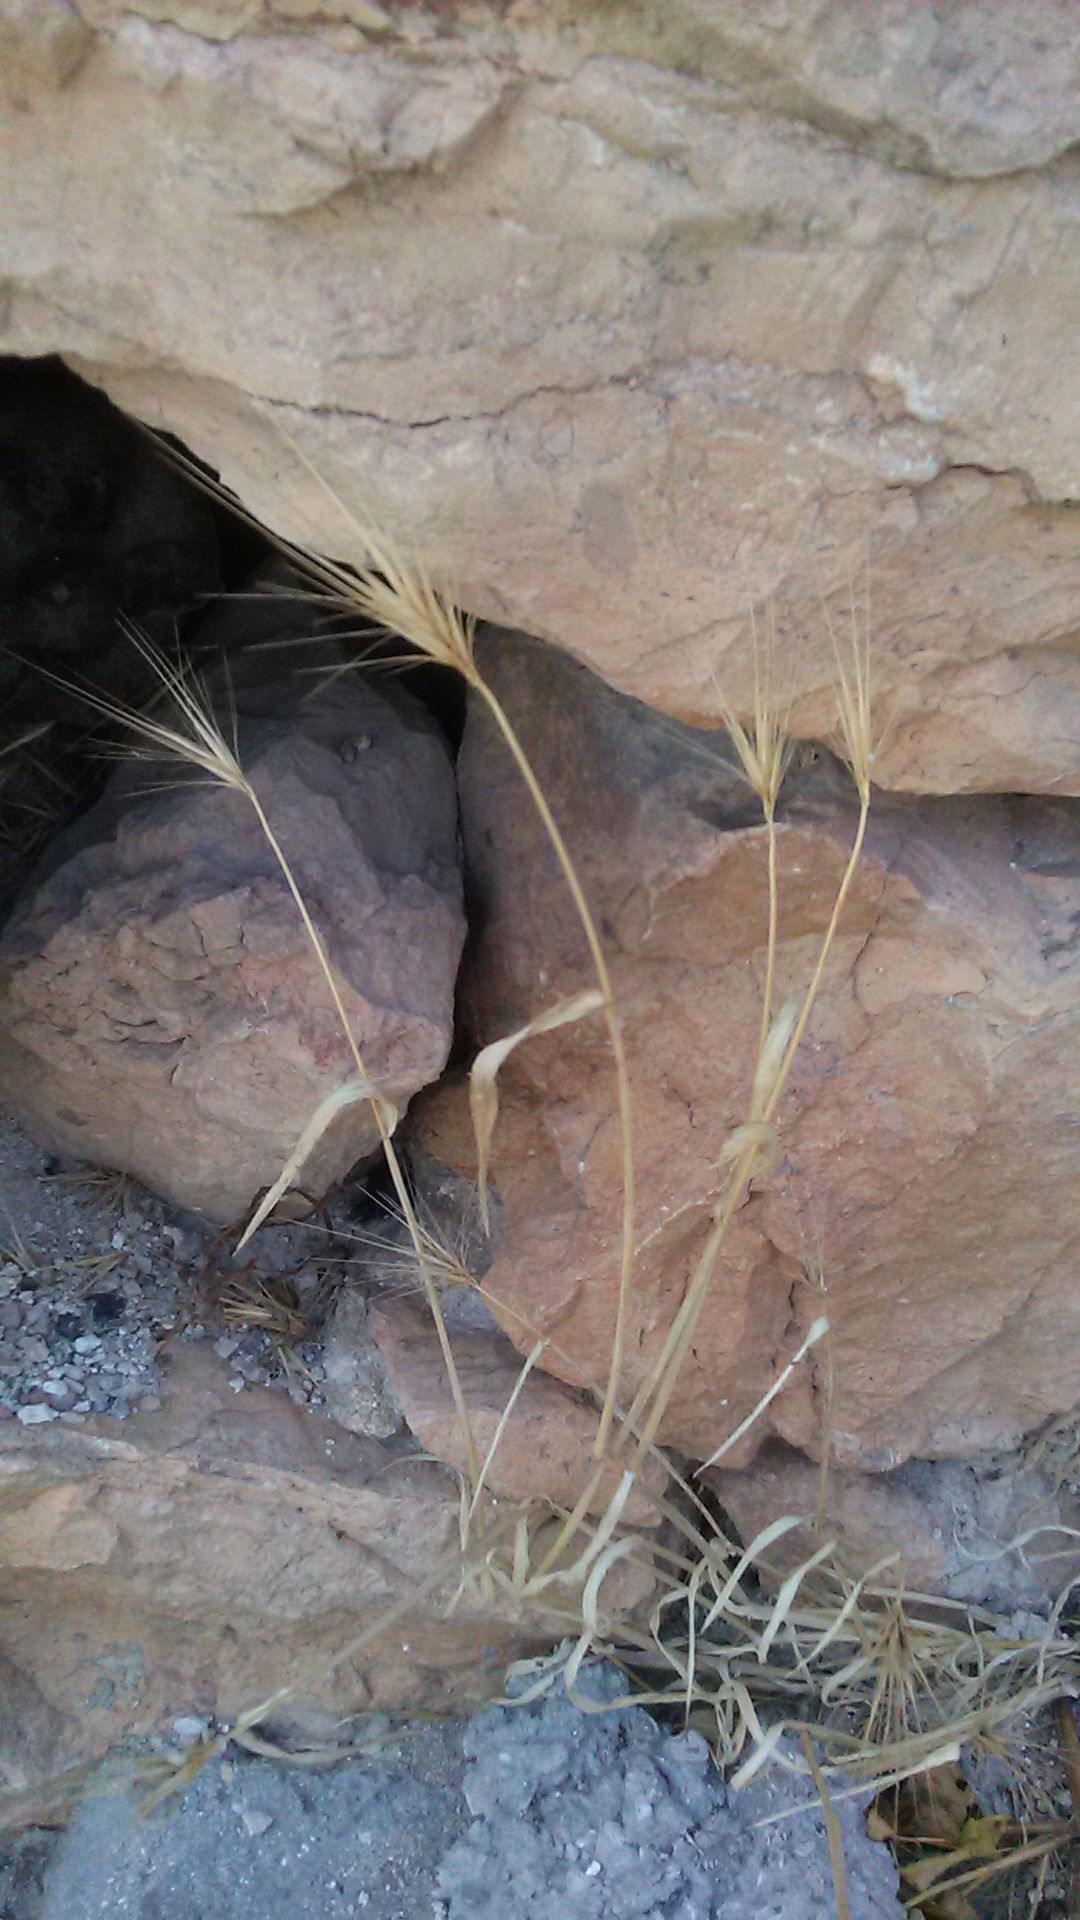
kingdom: Plantae
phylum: Tracheophyta
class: Liliopsida
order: Poales
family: Poaceae
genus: Hordeum
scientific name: Hordeum murinum
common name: Wall barley
